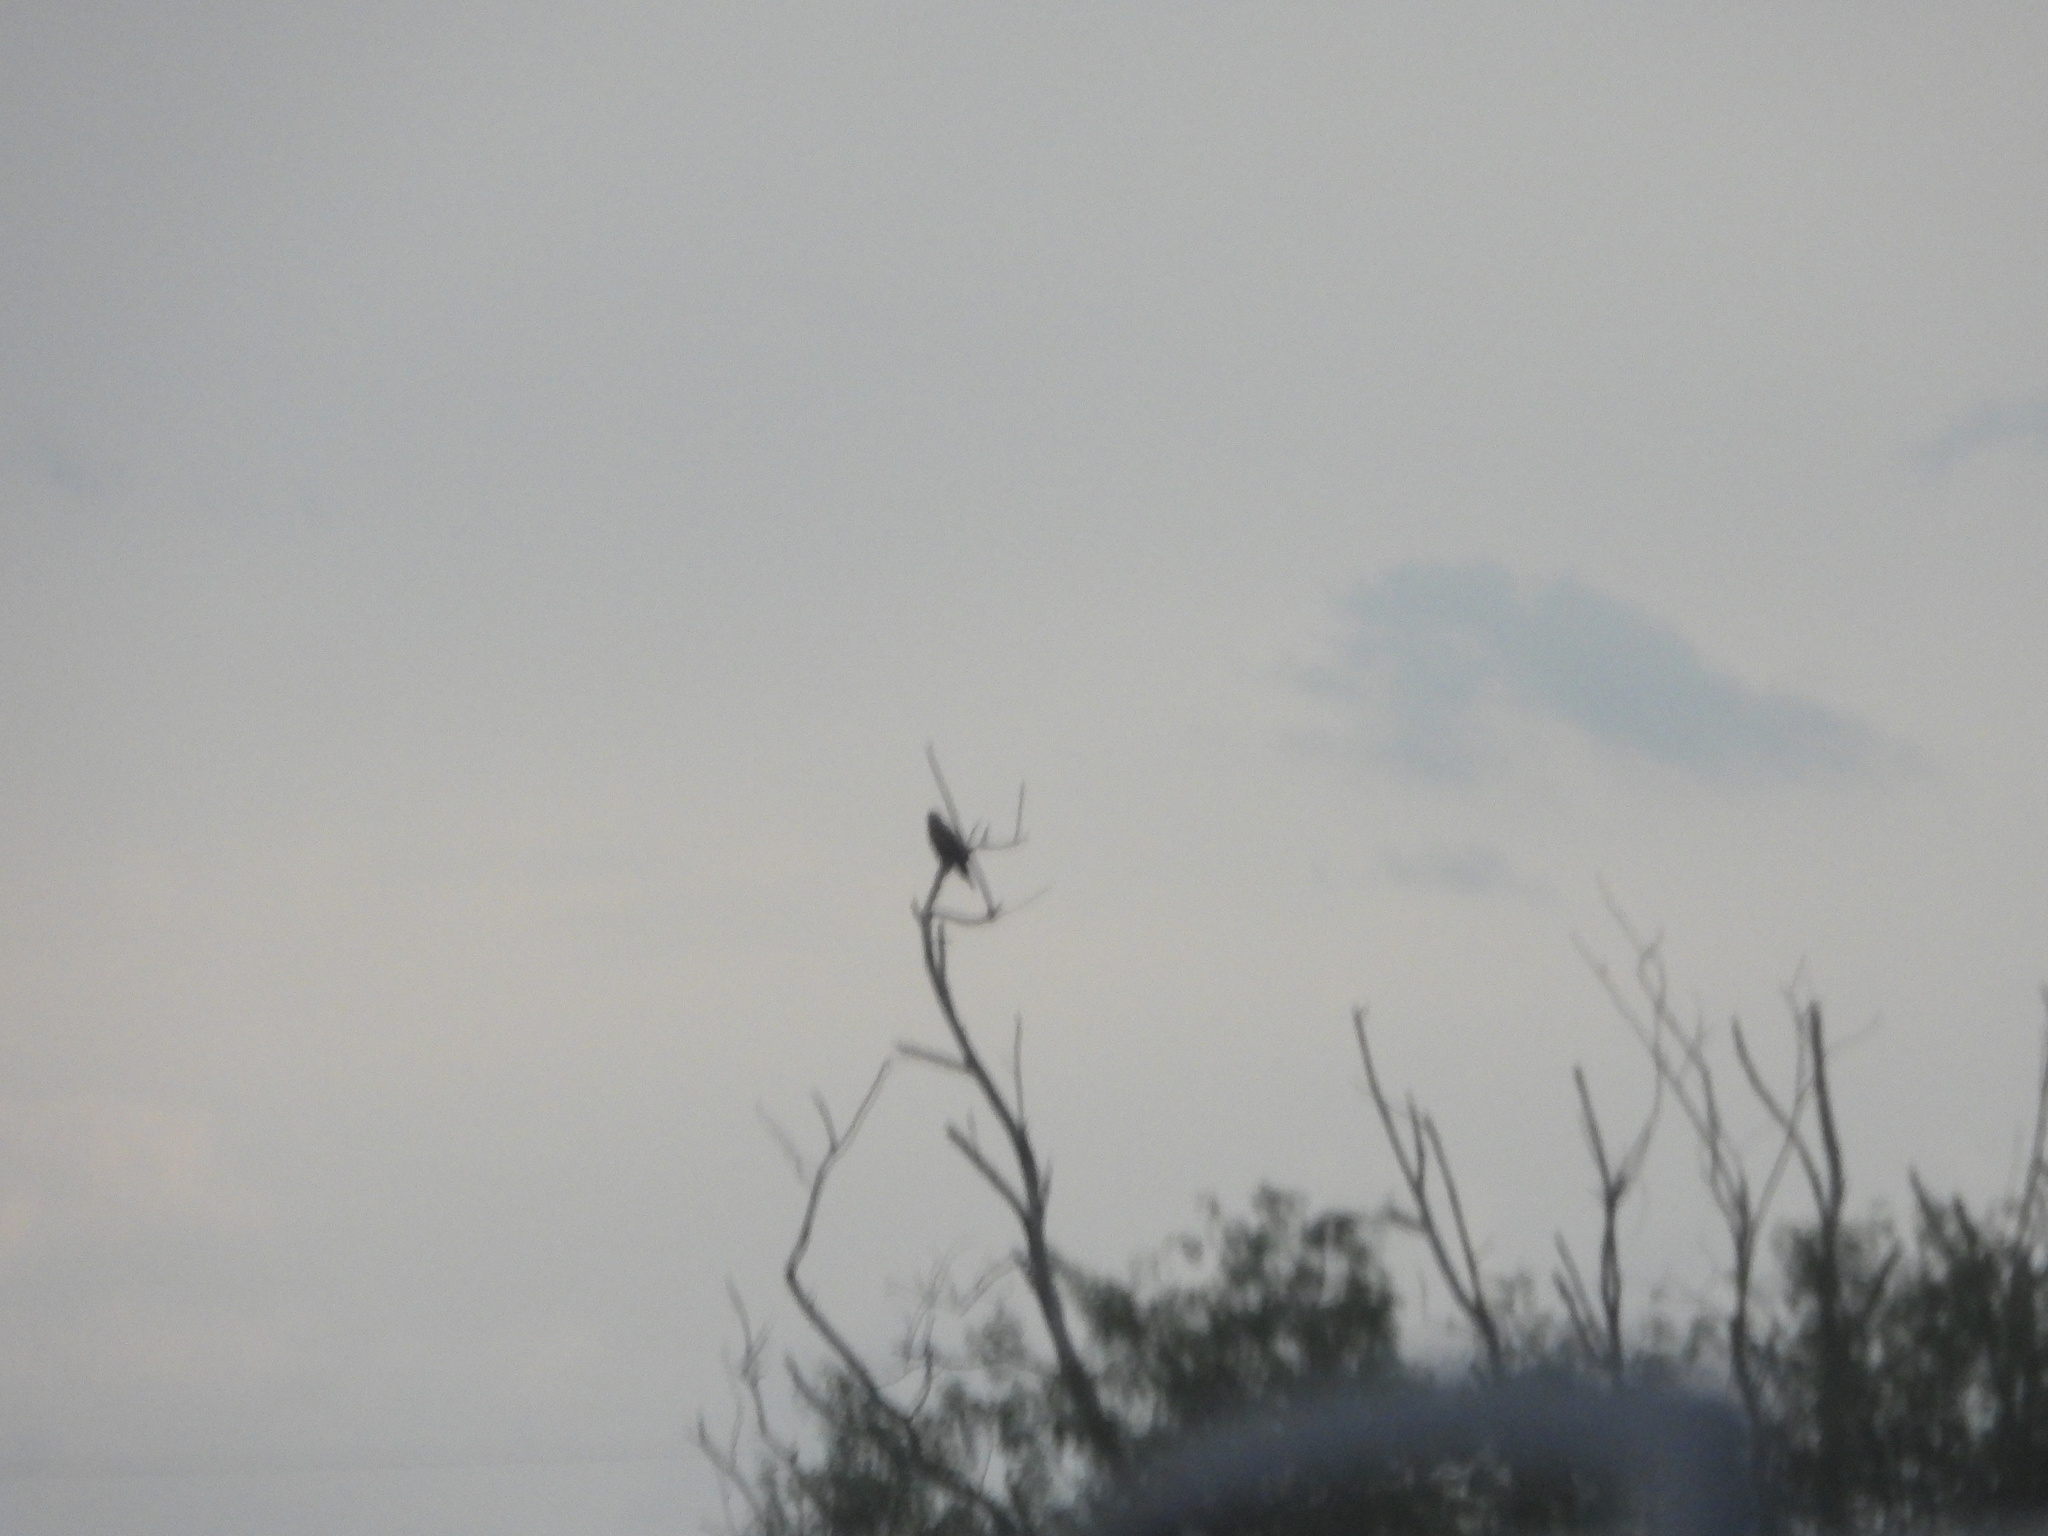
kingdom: Animalia
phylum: Chordata
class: Aves
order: Accipitriformes
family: Accipitridae
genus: Buteo
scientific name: Buteo albicaudatus
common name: White-tailed hawk
